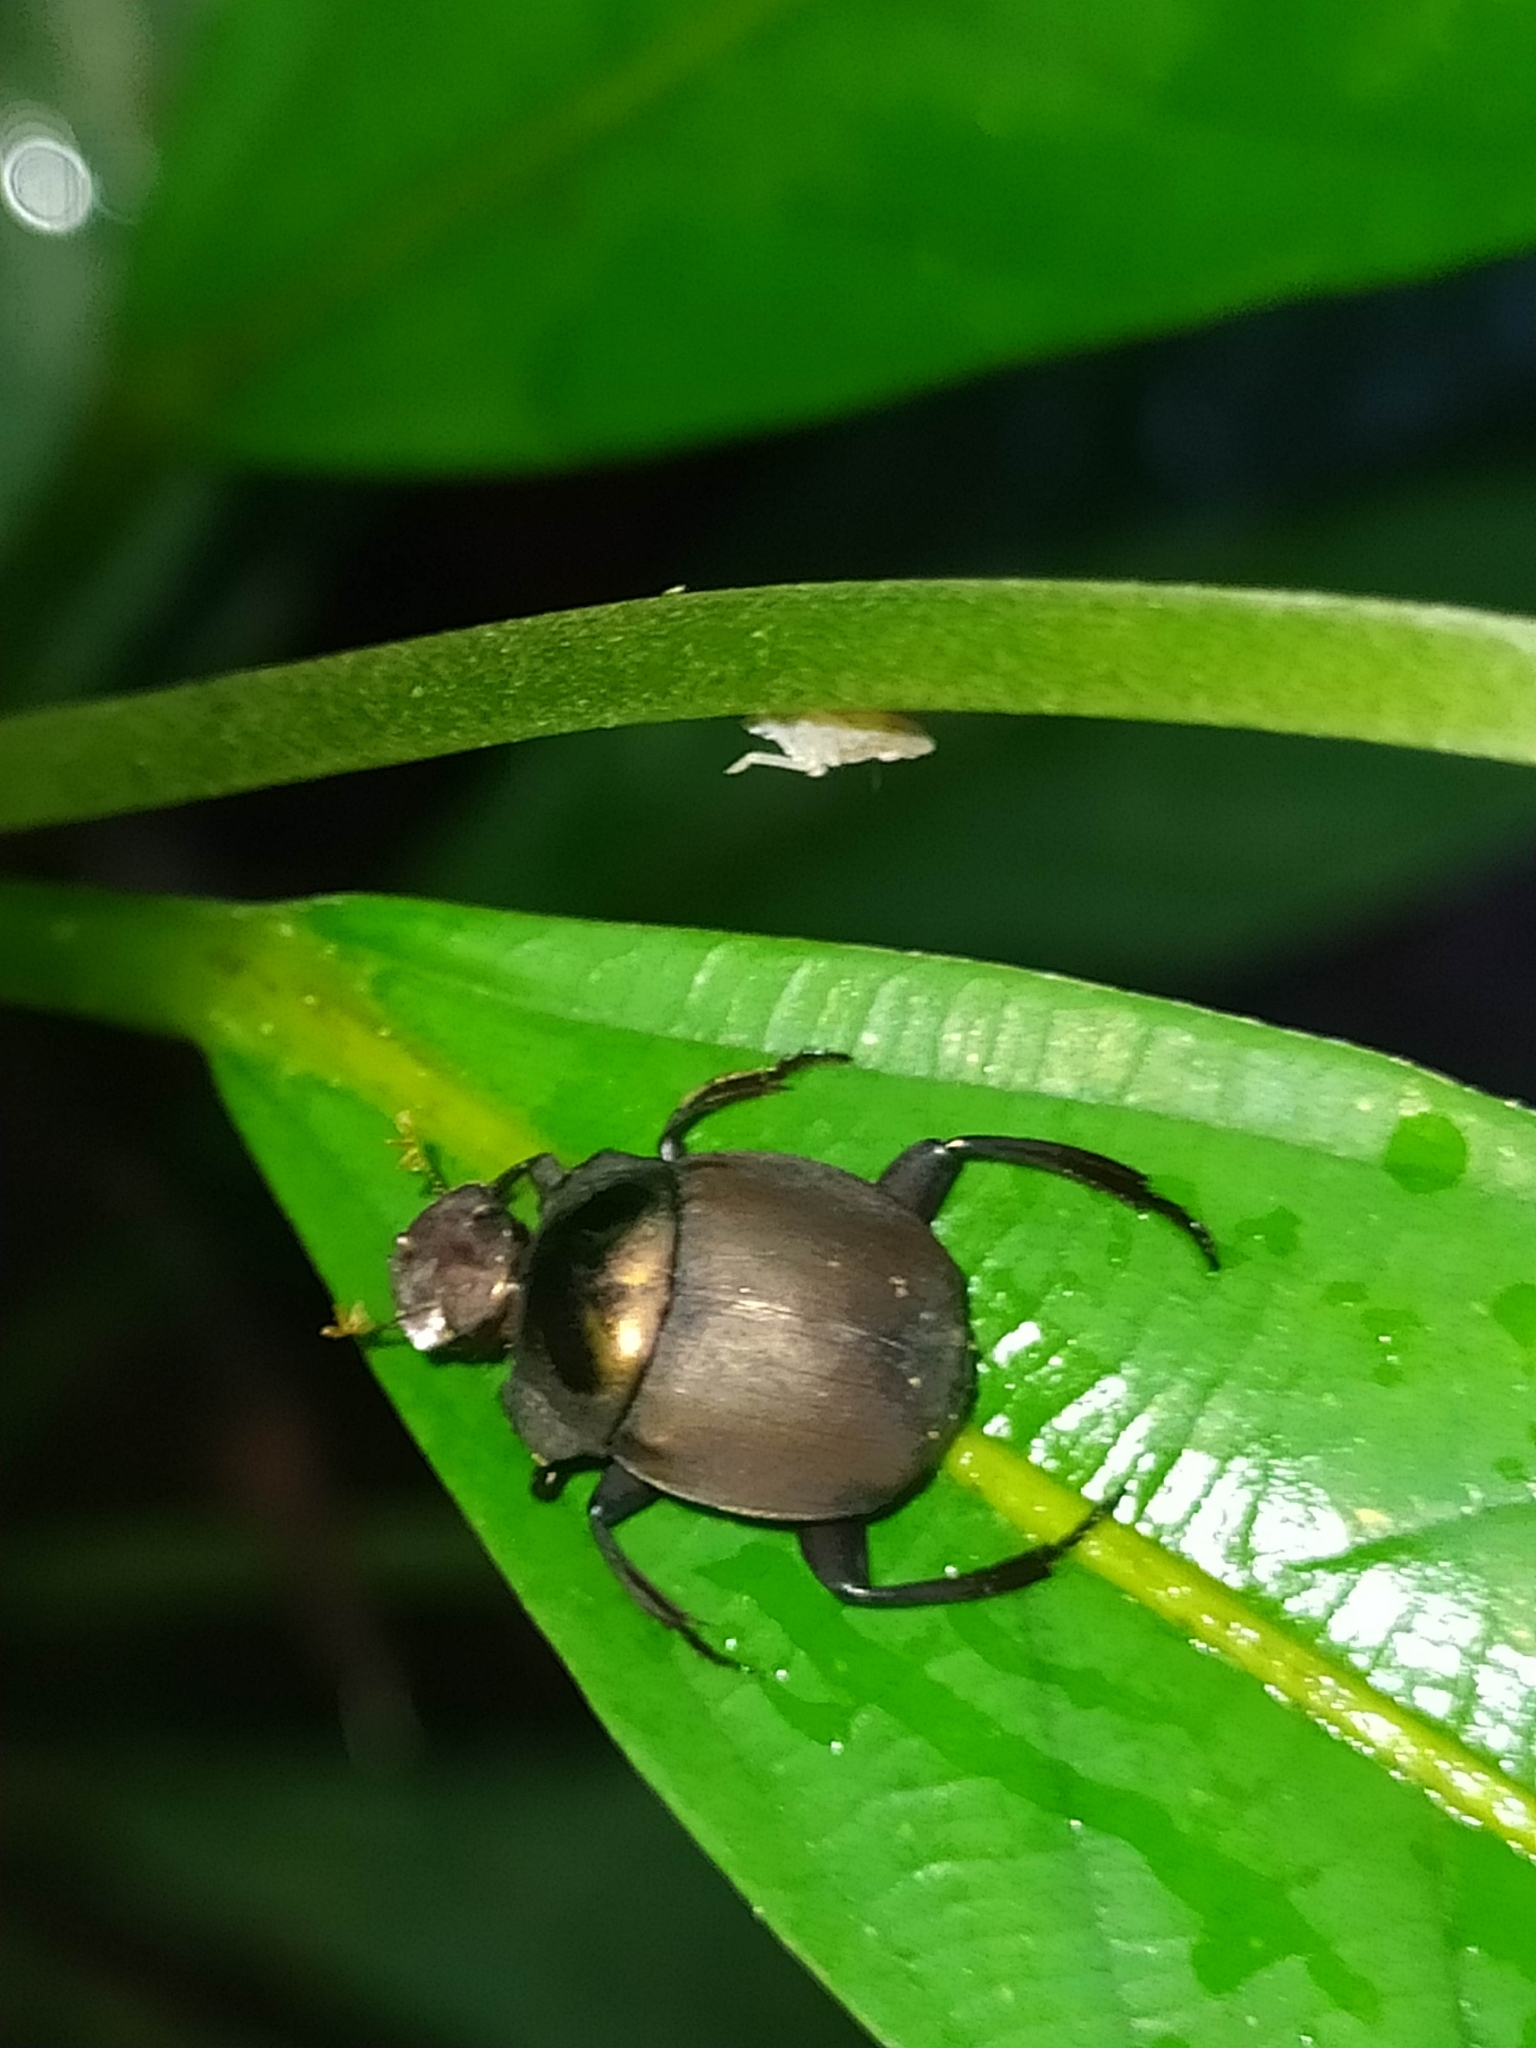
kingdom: Animalia
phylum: Arthropoda
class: Insecta
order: Coleoptera
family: Scarabaeidae
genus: Hansreia
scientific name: Hansreia affinis
